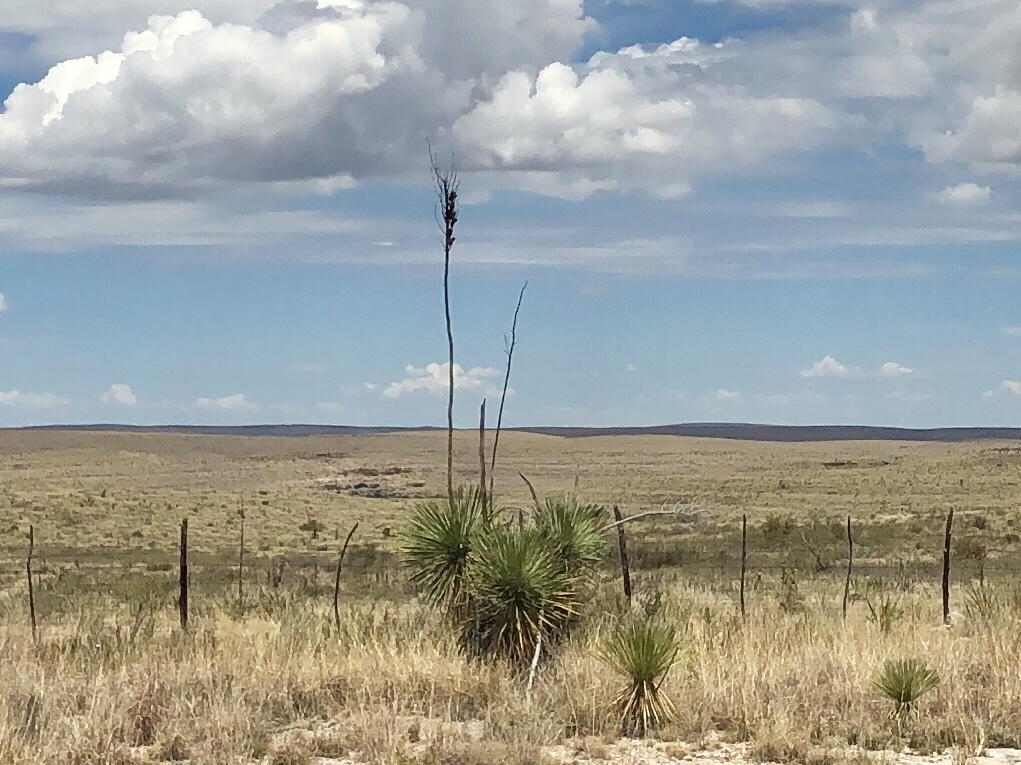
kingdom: Plantae
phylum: Tracheophyta
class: Liliopsida
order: Asparagales
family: Asparagaceae
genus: Yucca
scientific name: Yucca elata
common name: Palmella
